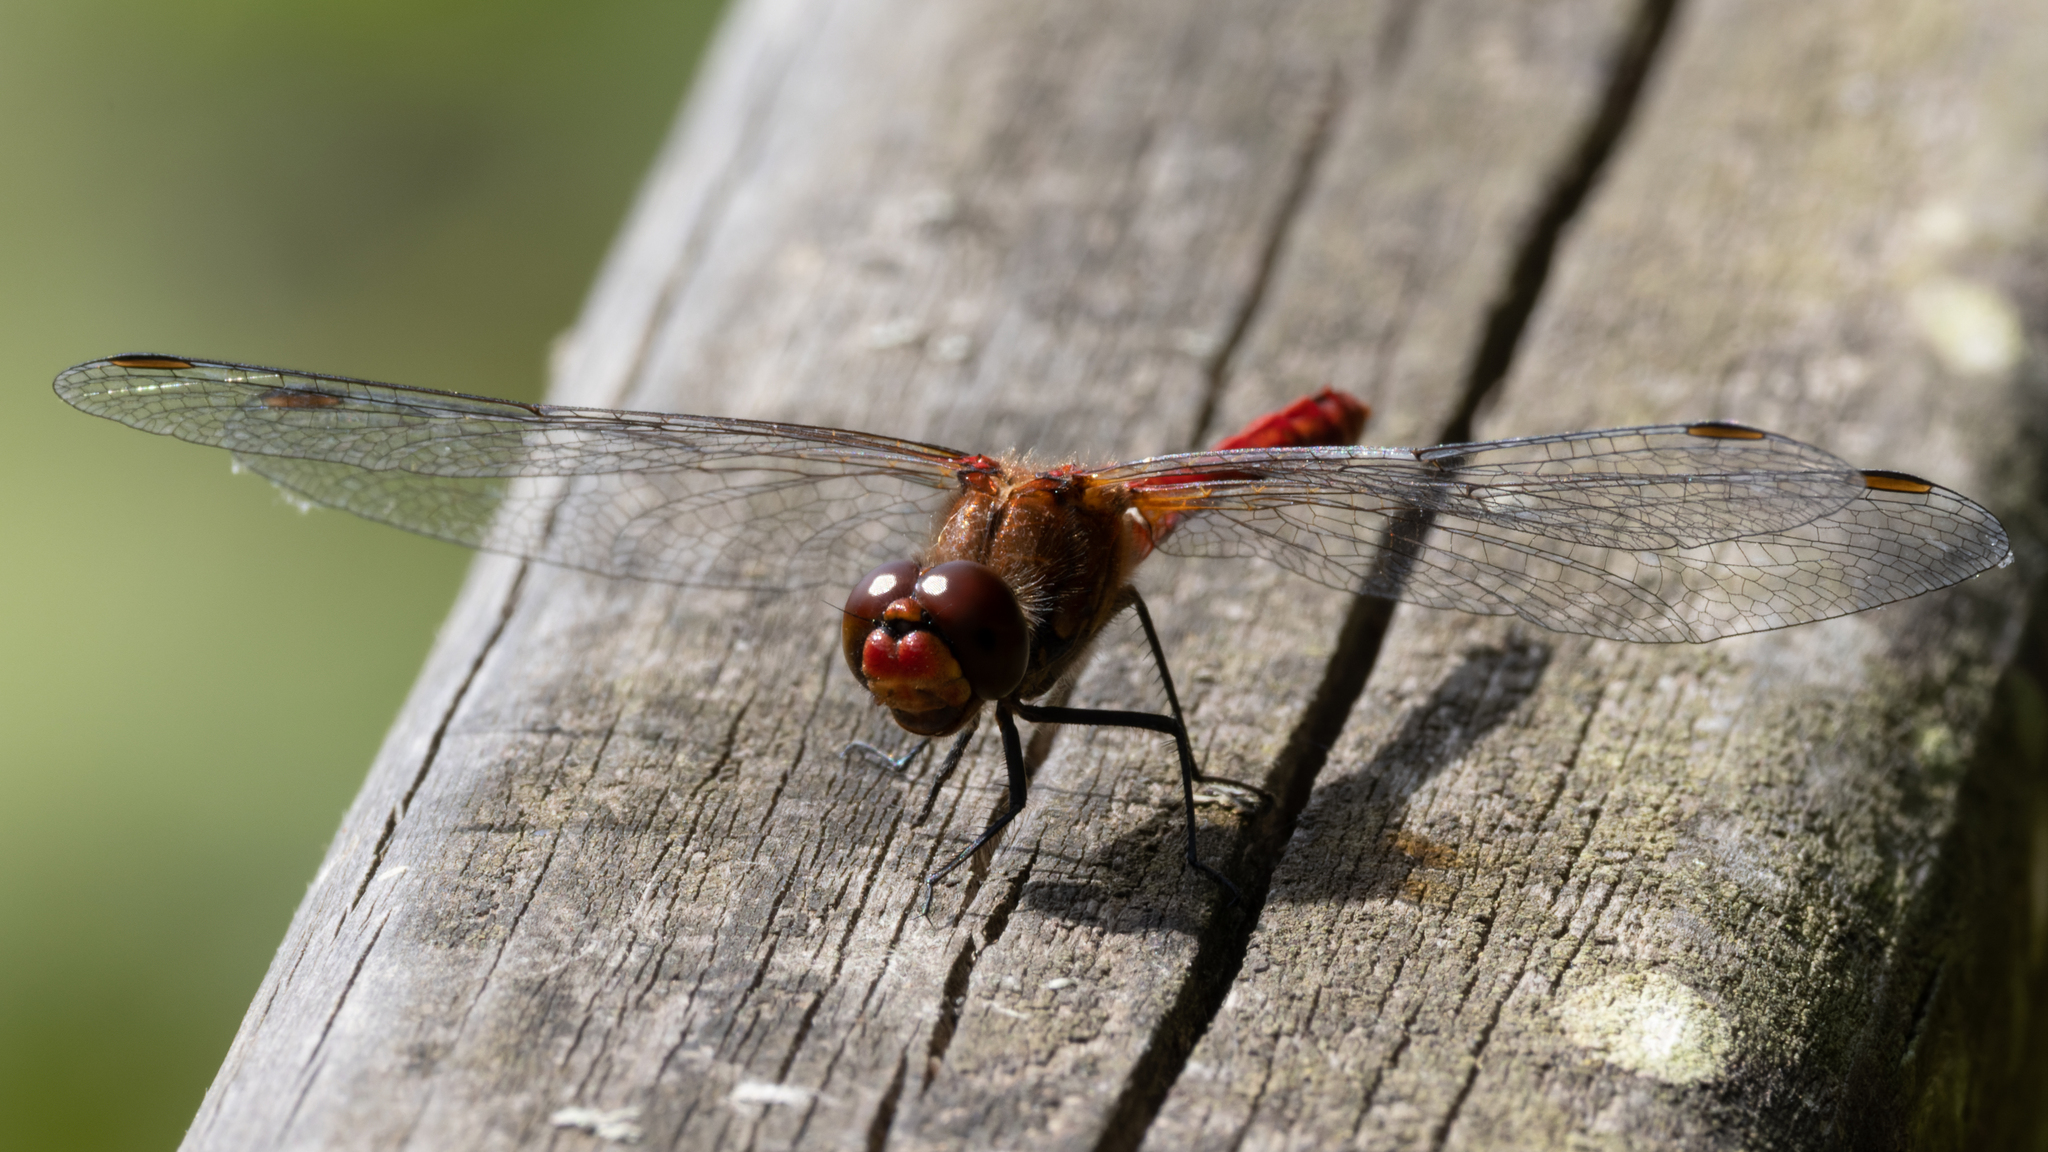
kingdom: Animalia
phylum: Arthropoda
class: Insecta
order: Odonata
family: Libellulidae
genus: Sympetrum
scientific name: Sympetrum sanguineum
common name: Ruddy darter
